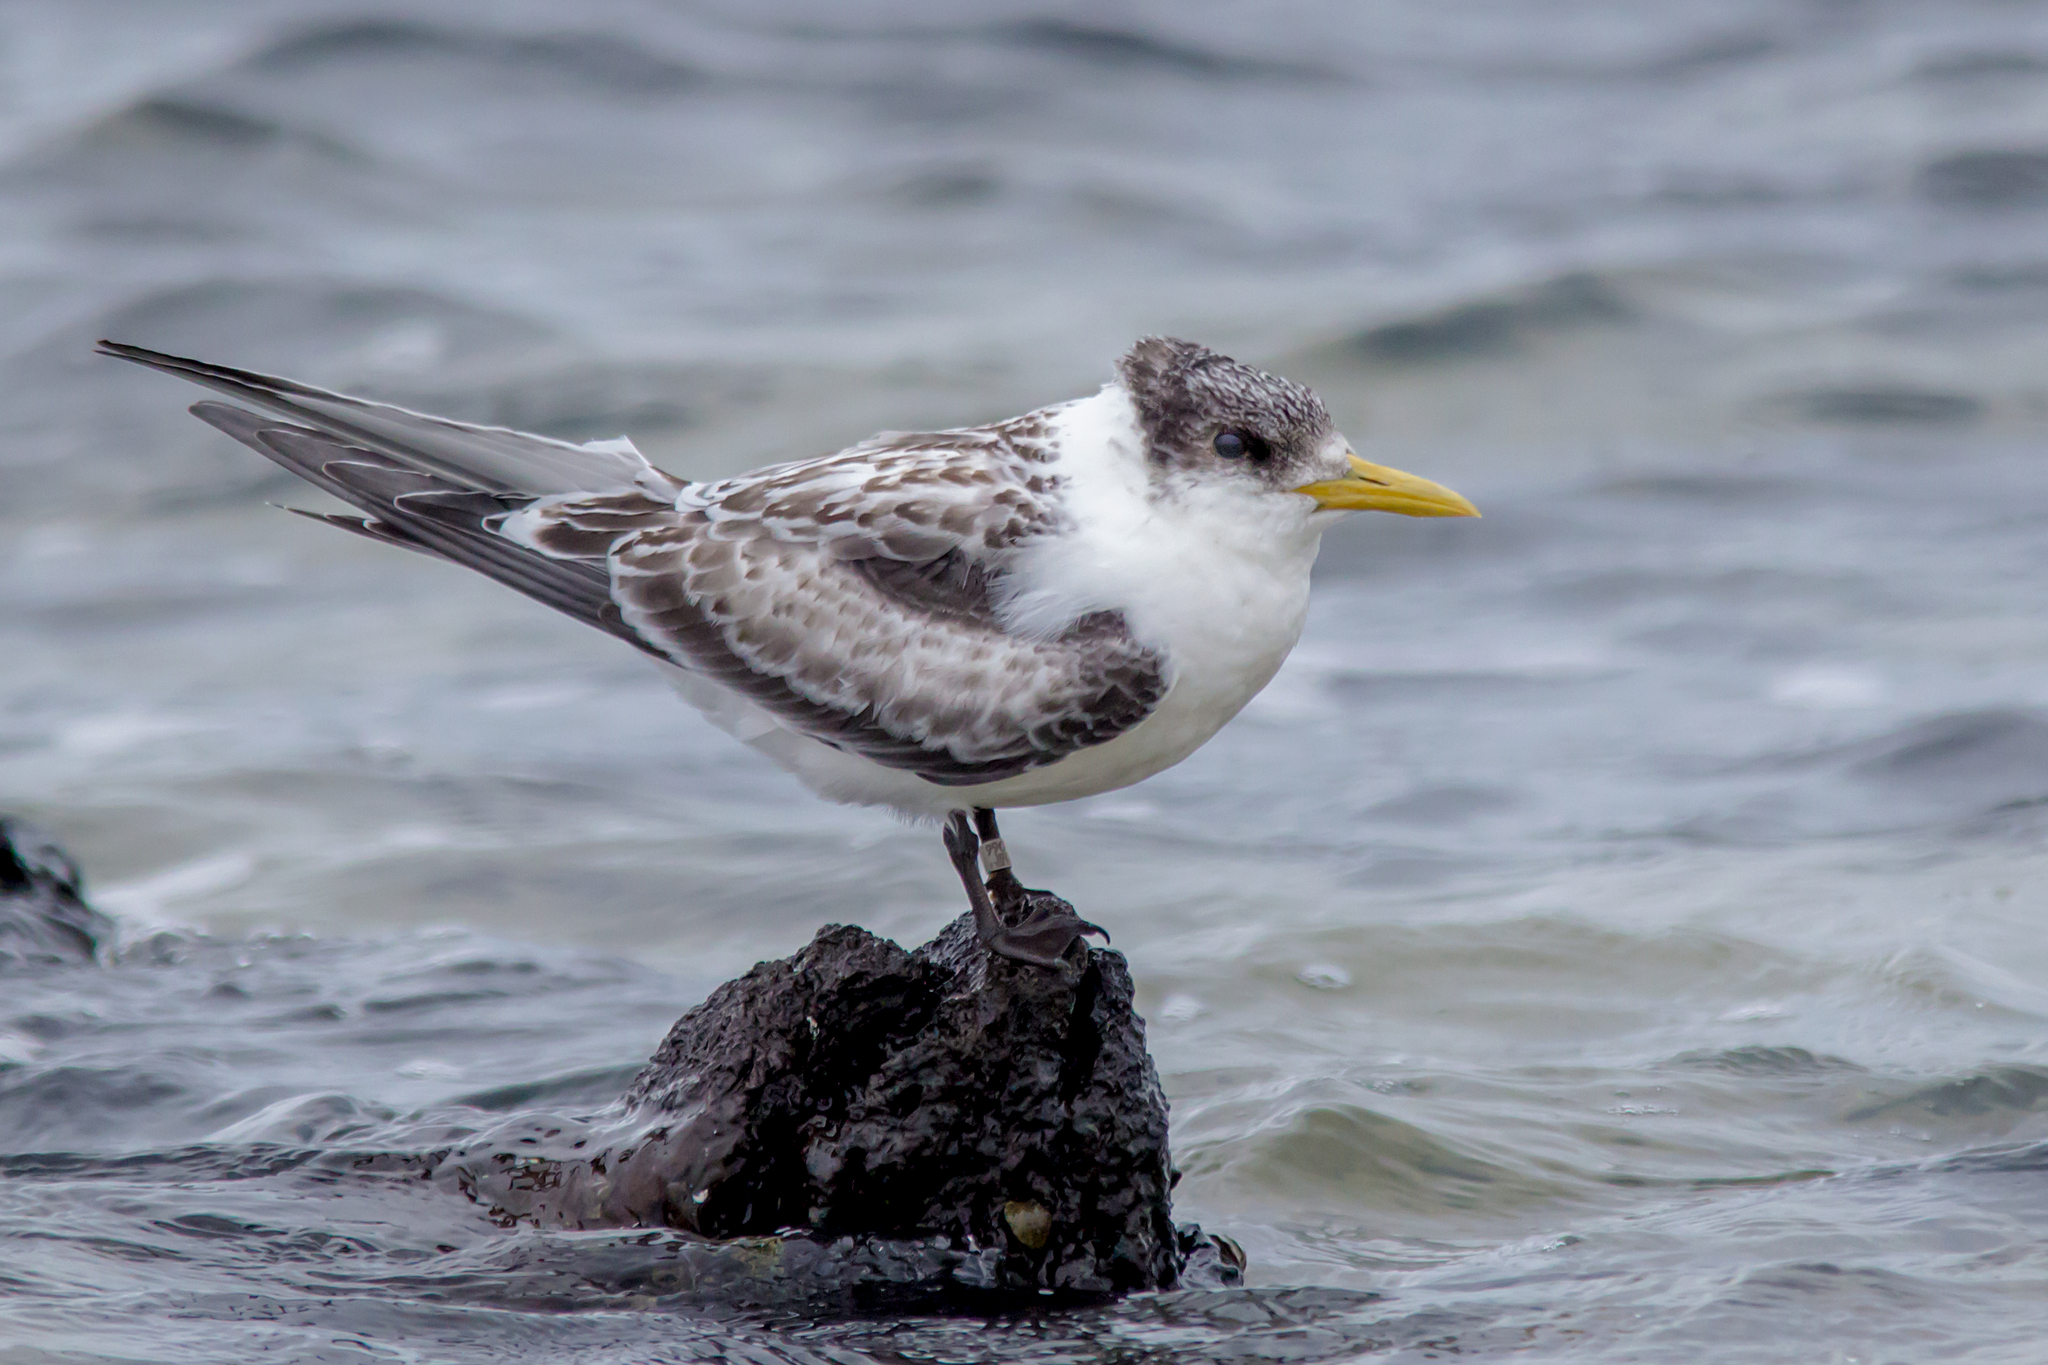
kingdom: Animalia
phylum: Chordata
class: Aves
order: Charadriiformes
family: Laridae
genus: Thalasseus
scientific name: Thalasseus bergii
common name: Greater crested tern
